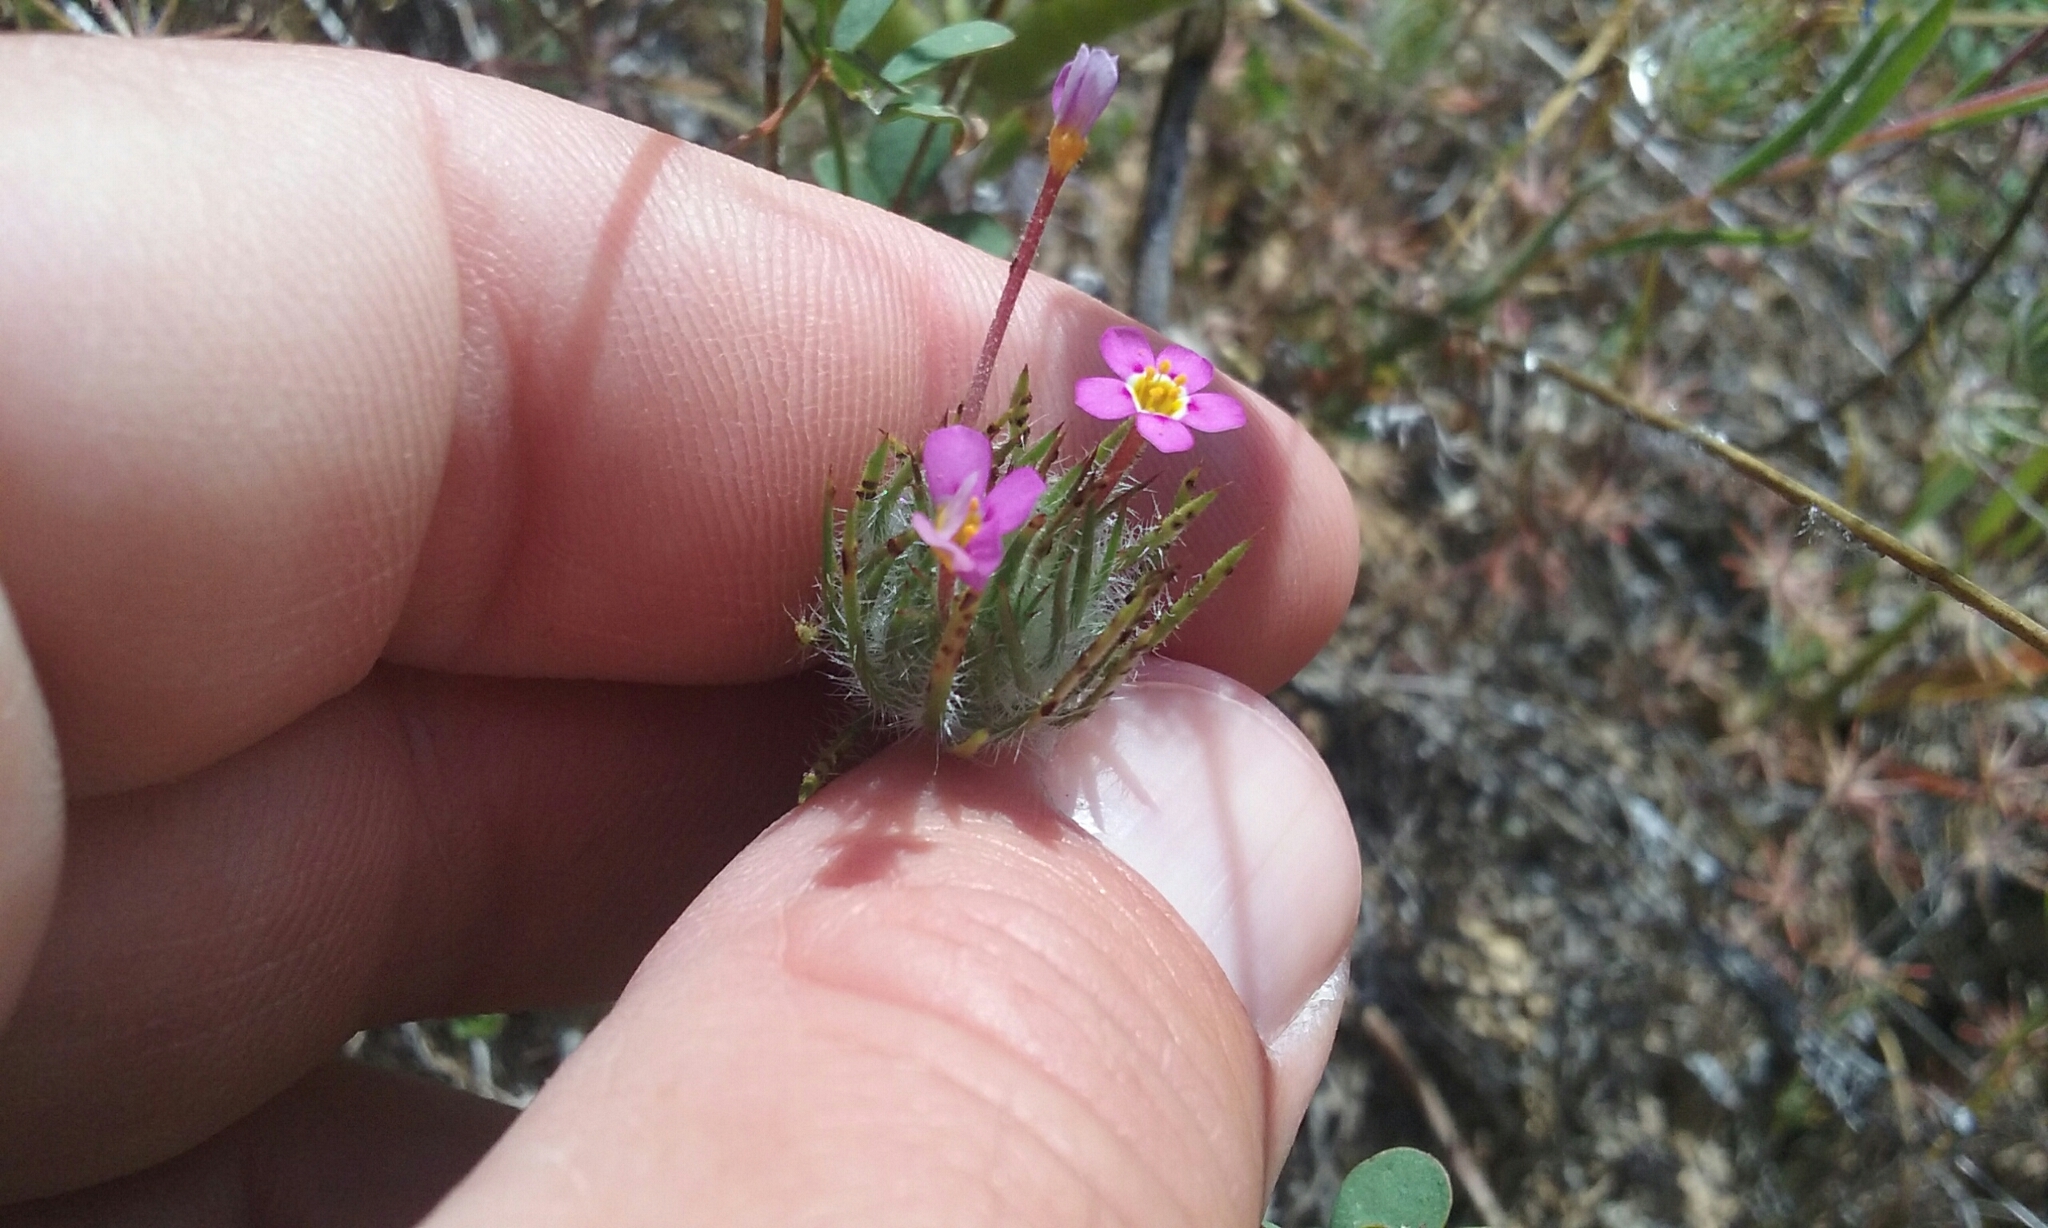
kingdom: Plantae
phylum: Tracheophyta
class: Magnoliopsida
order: Ericales
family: Polemoniaceae
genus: Leptosiphon
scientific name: Leptosiphon ciliatus
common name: Whiskerbrush
